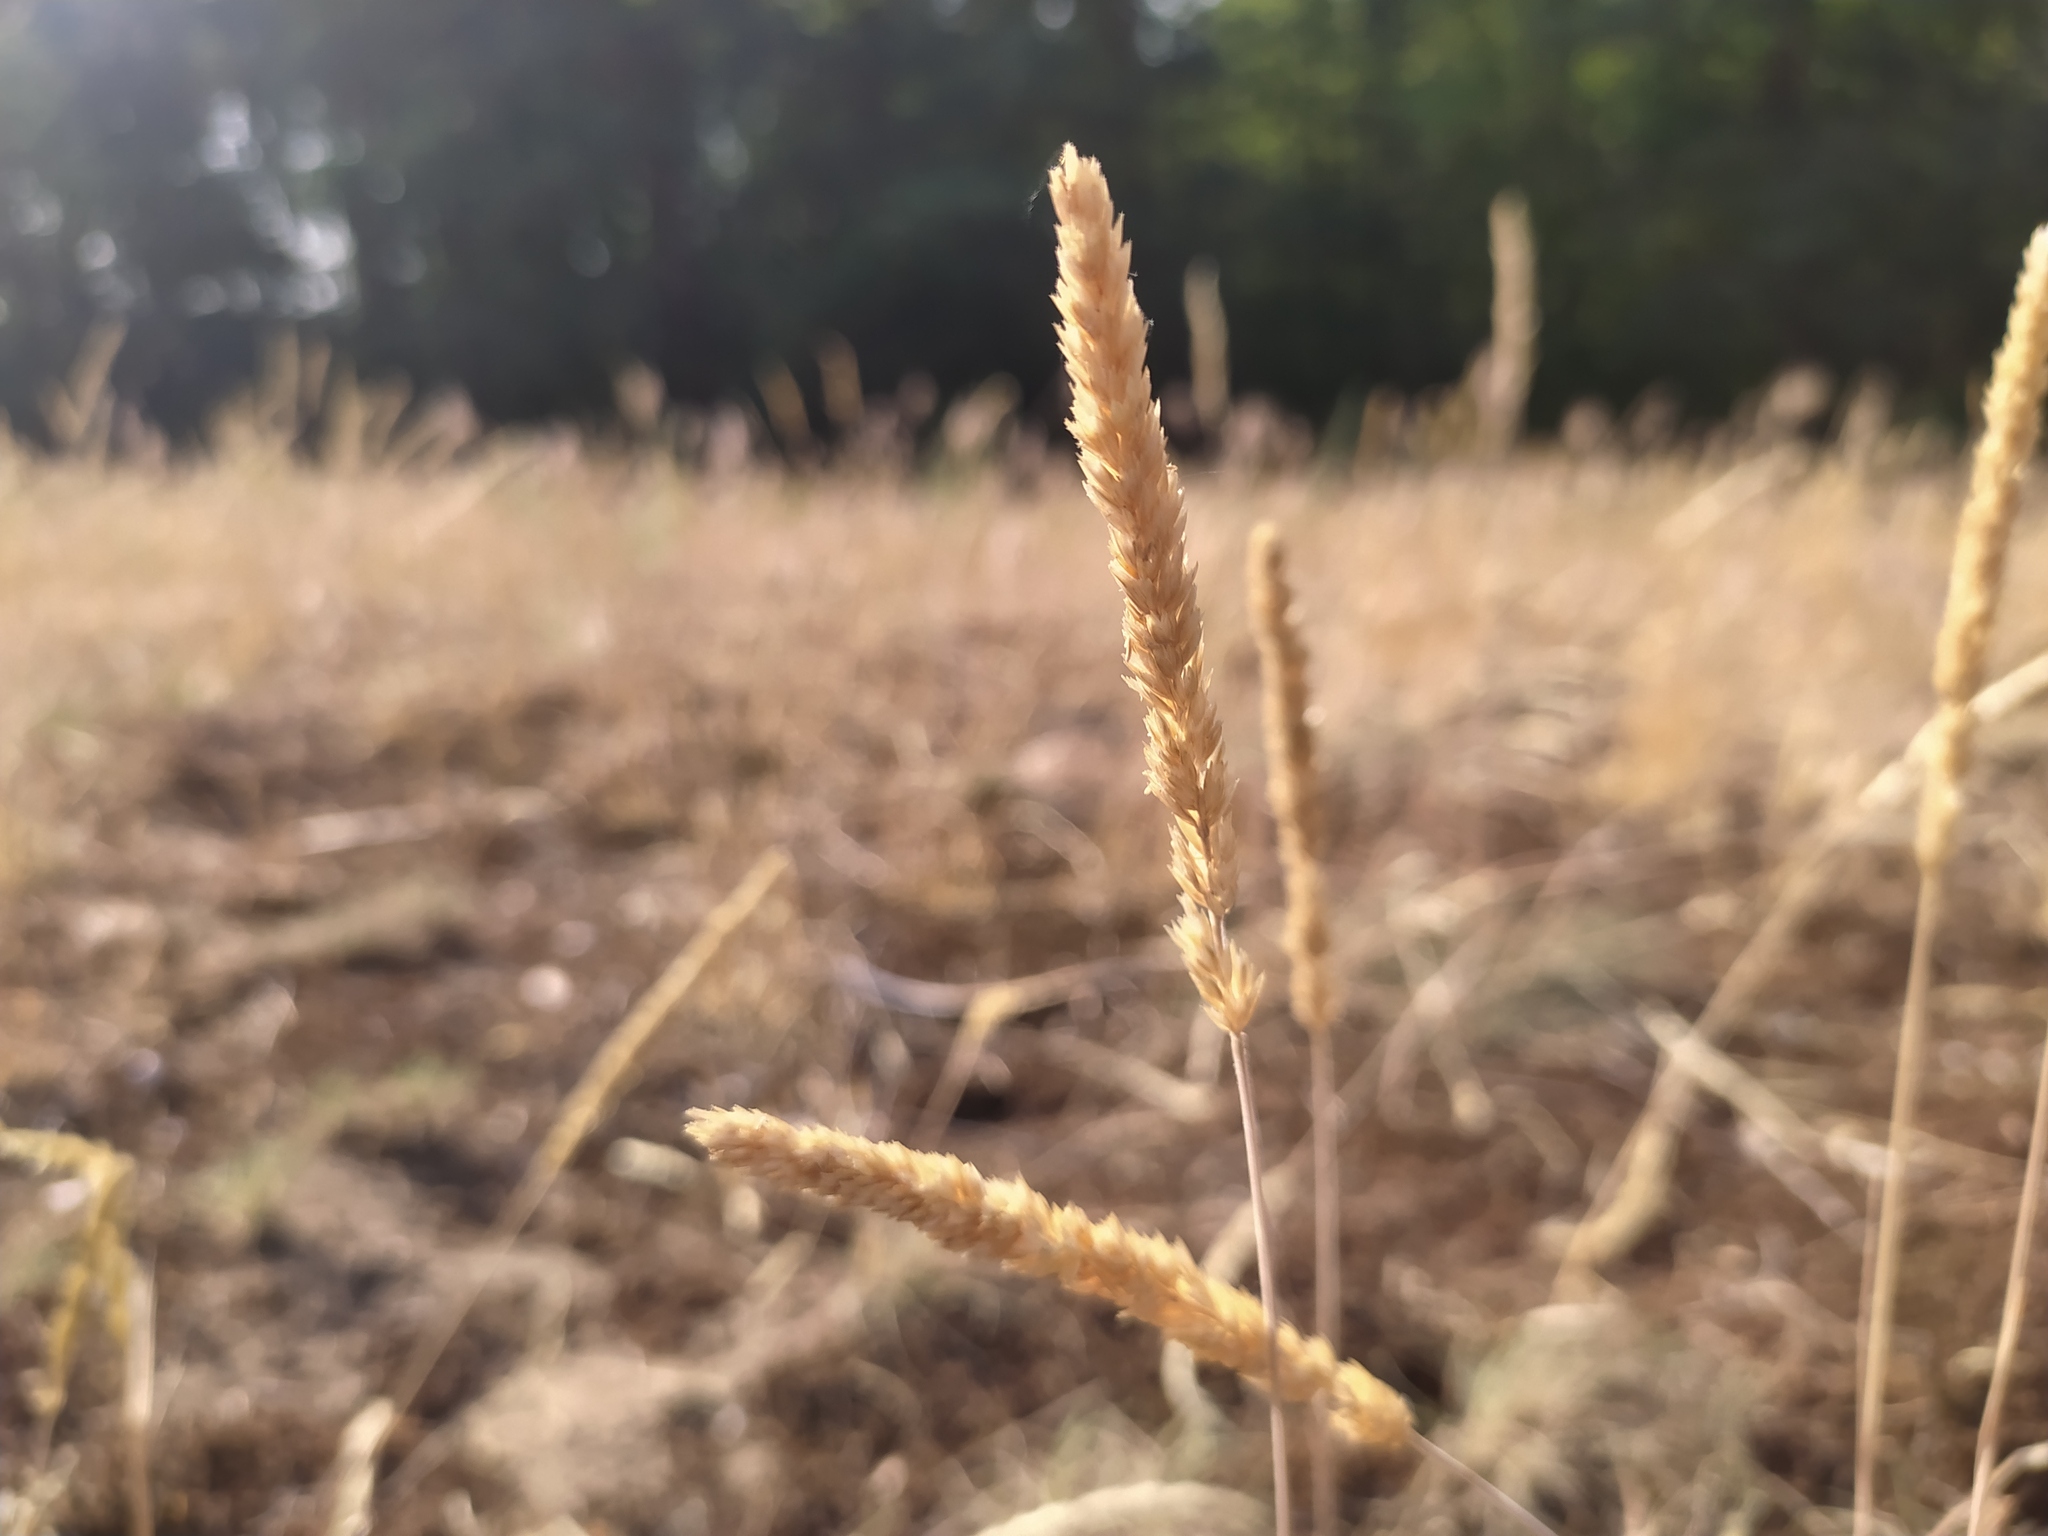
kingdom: Plantae
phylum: Tracheophyta
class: Liliopsida
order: Poales
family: Poaceae
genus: Koeleria
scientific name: Koeleria glauca
